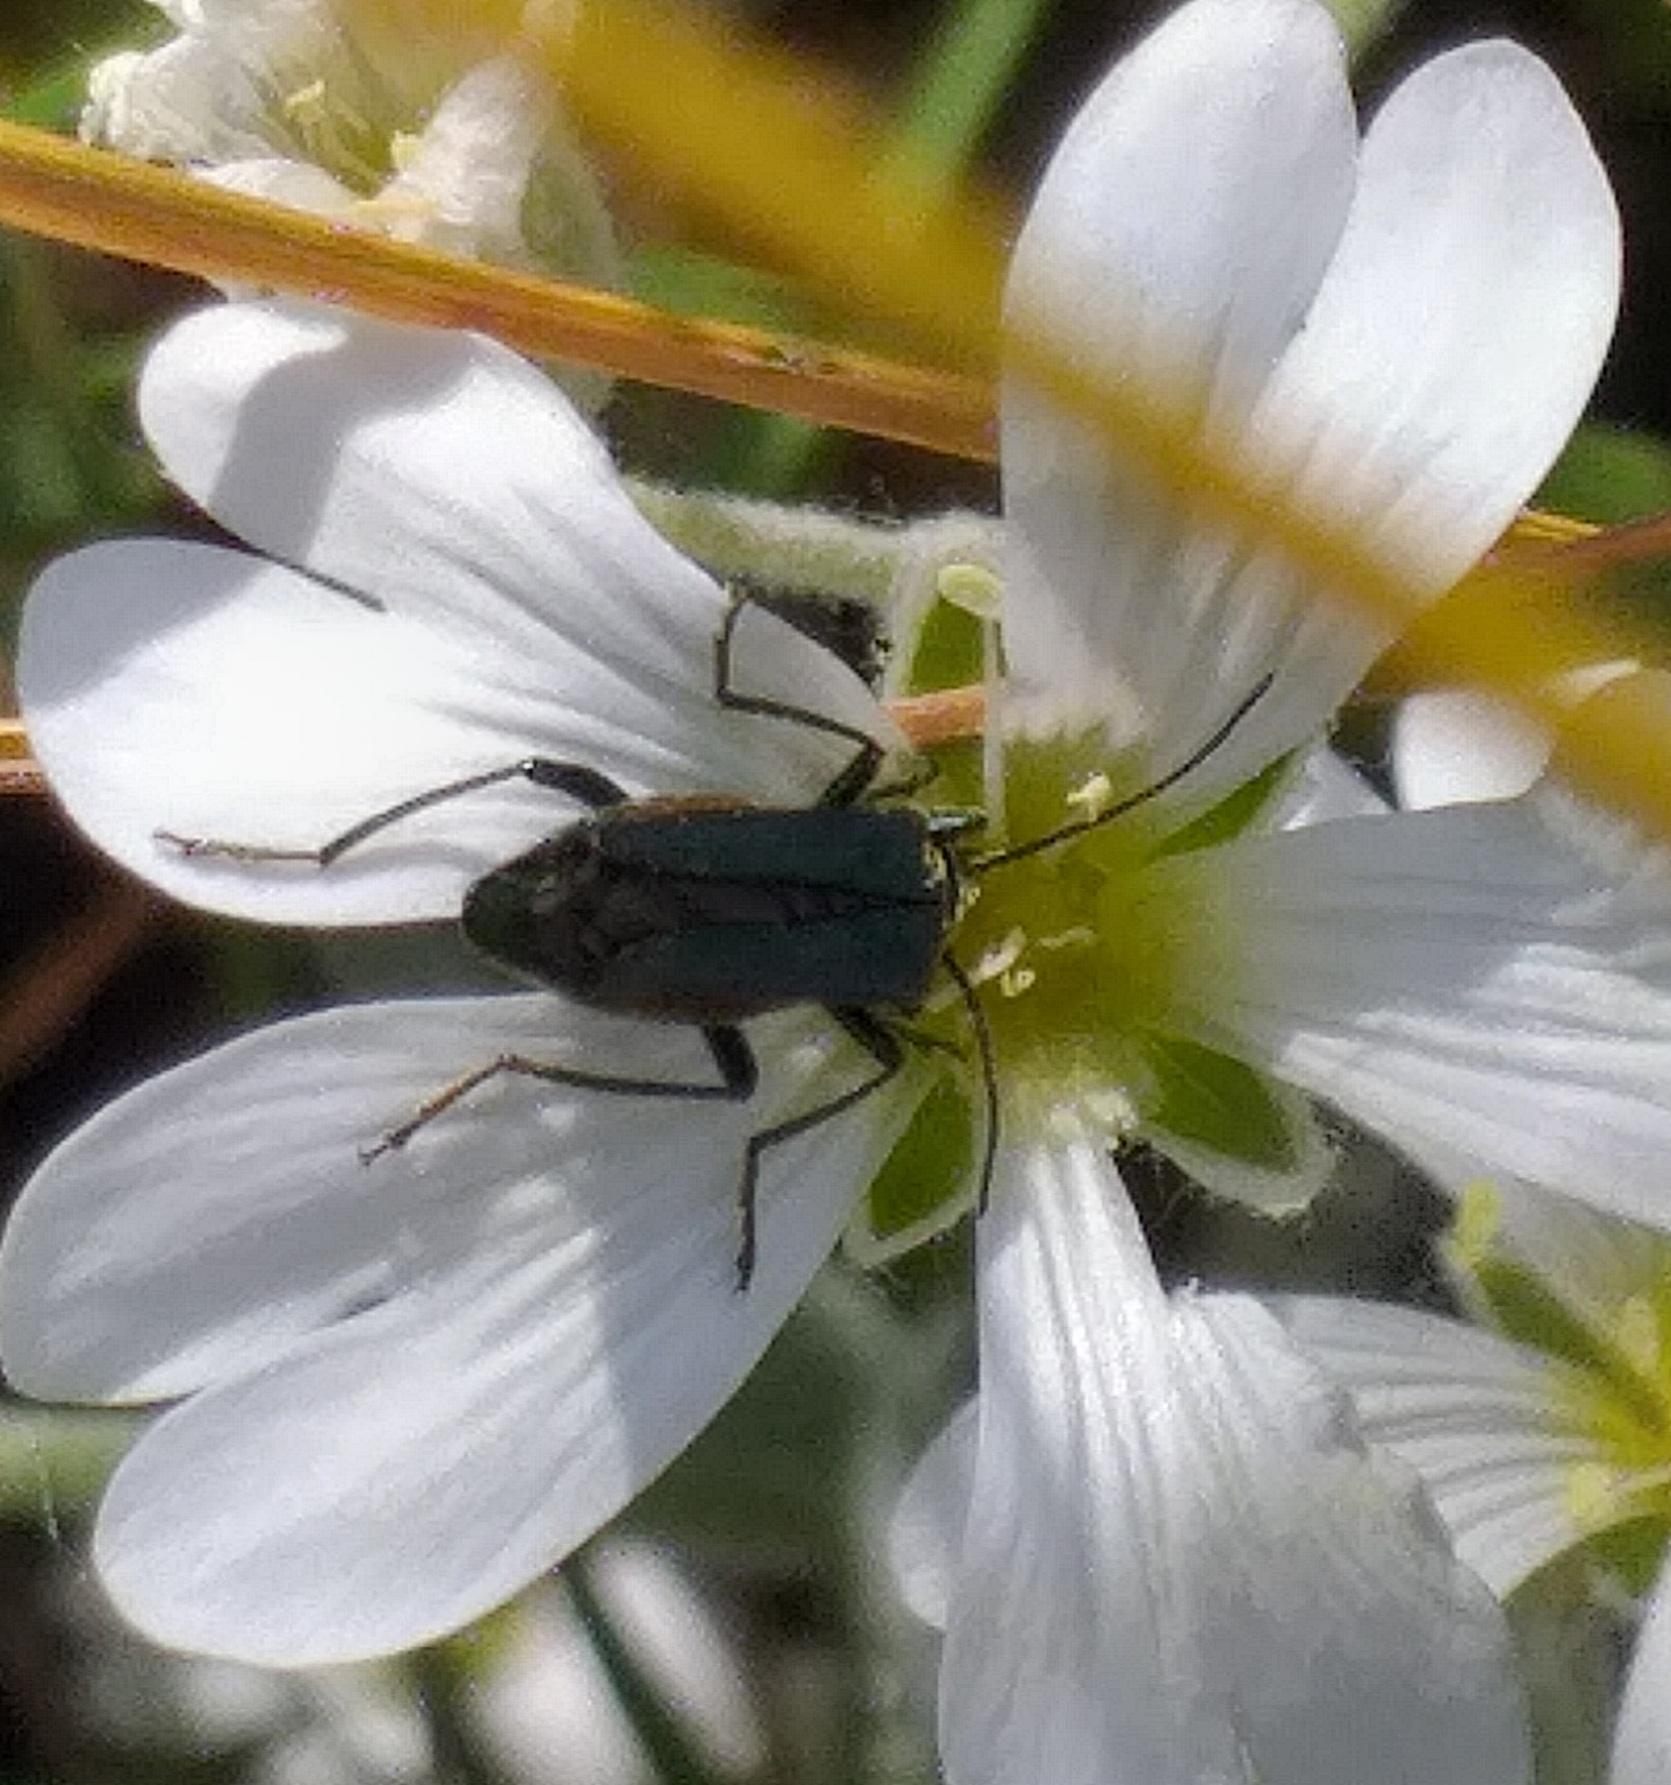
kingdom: Animalia
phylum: Arthropoda
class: Insecta
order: Coleoptera
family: Oedemeridae
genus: Oedemera
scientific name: Oedemera nobilis
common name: Swollen-thighed beetle
